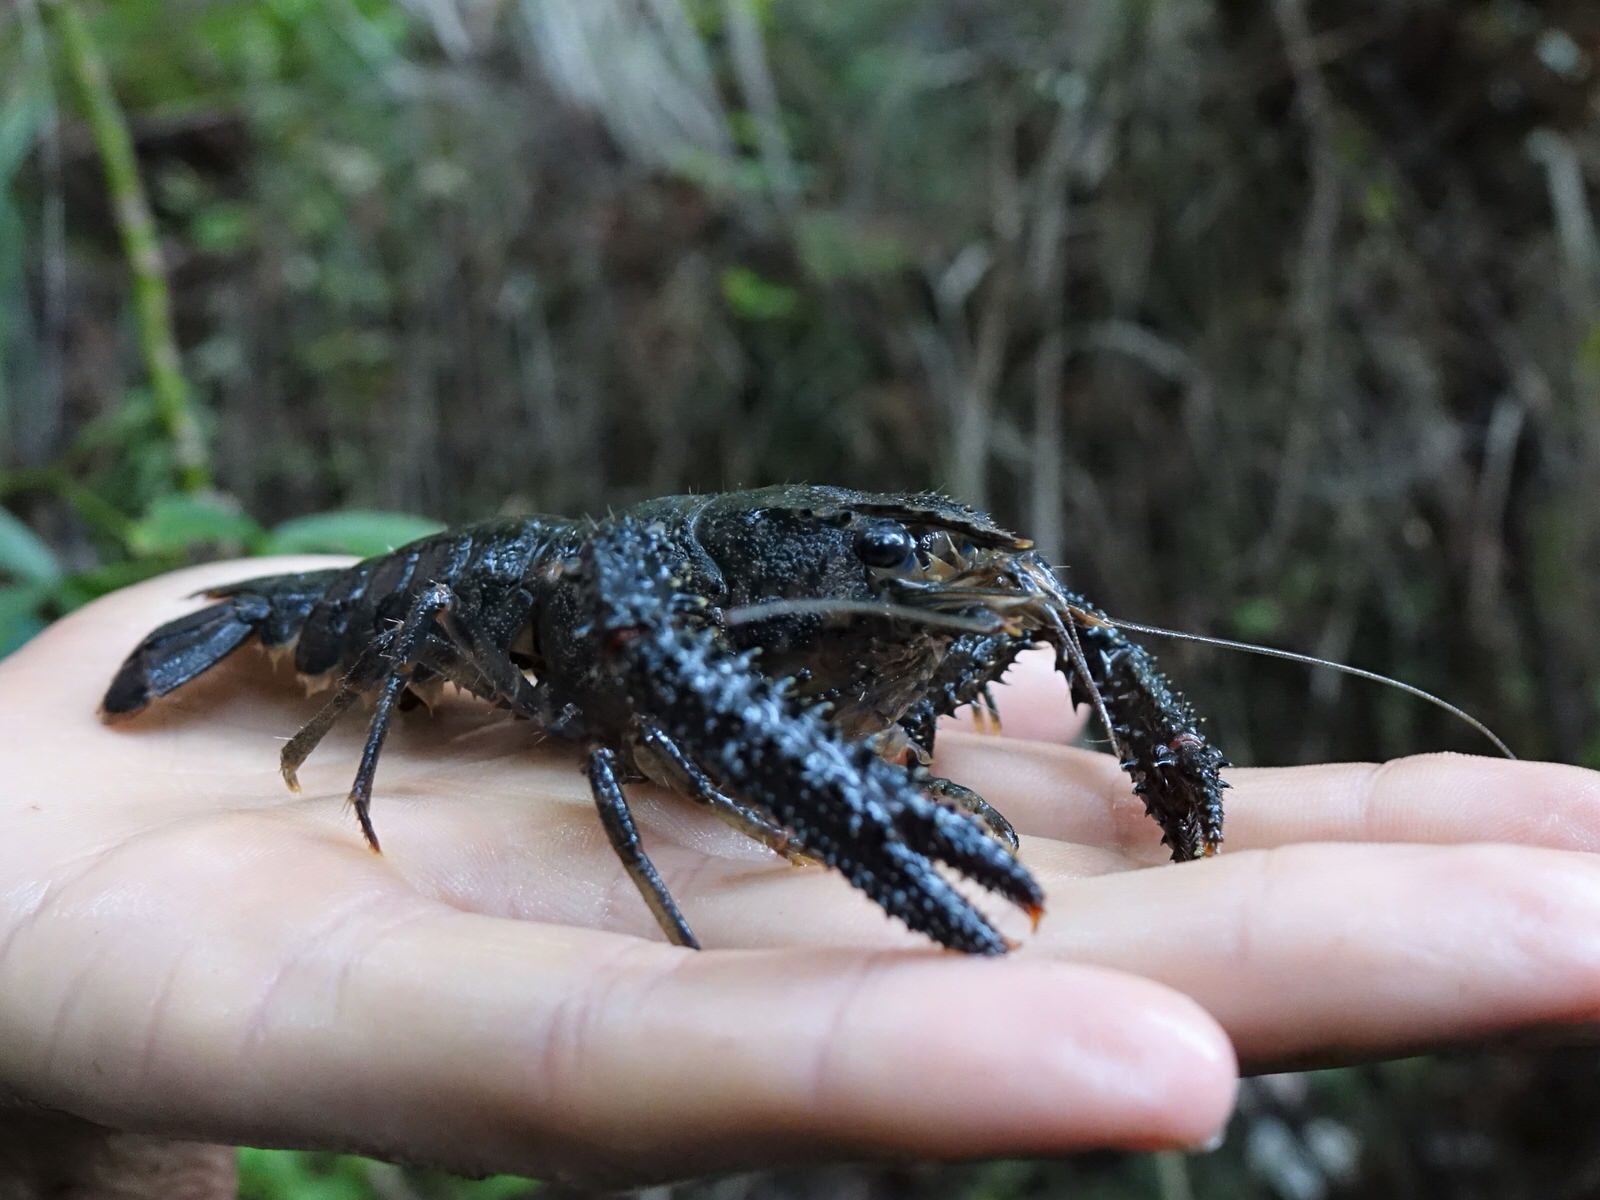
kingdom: Animalia
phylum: Arthropoda
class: Malacostraca
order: Decapoda
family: Parastacidae
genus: Paranephrops
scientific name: Paranephrops planifrons
